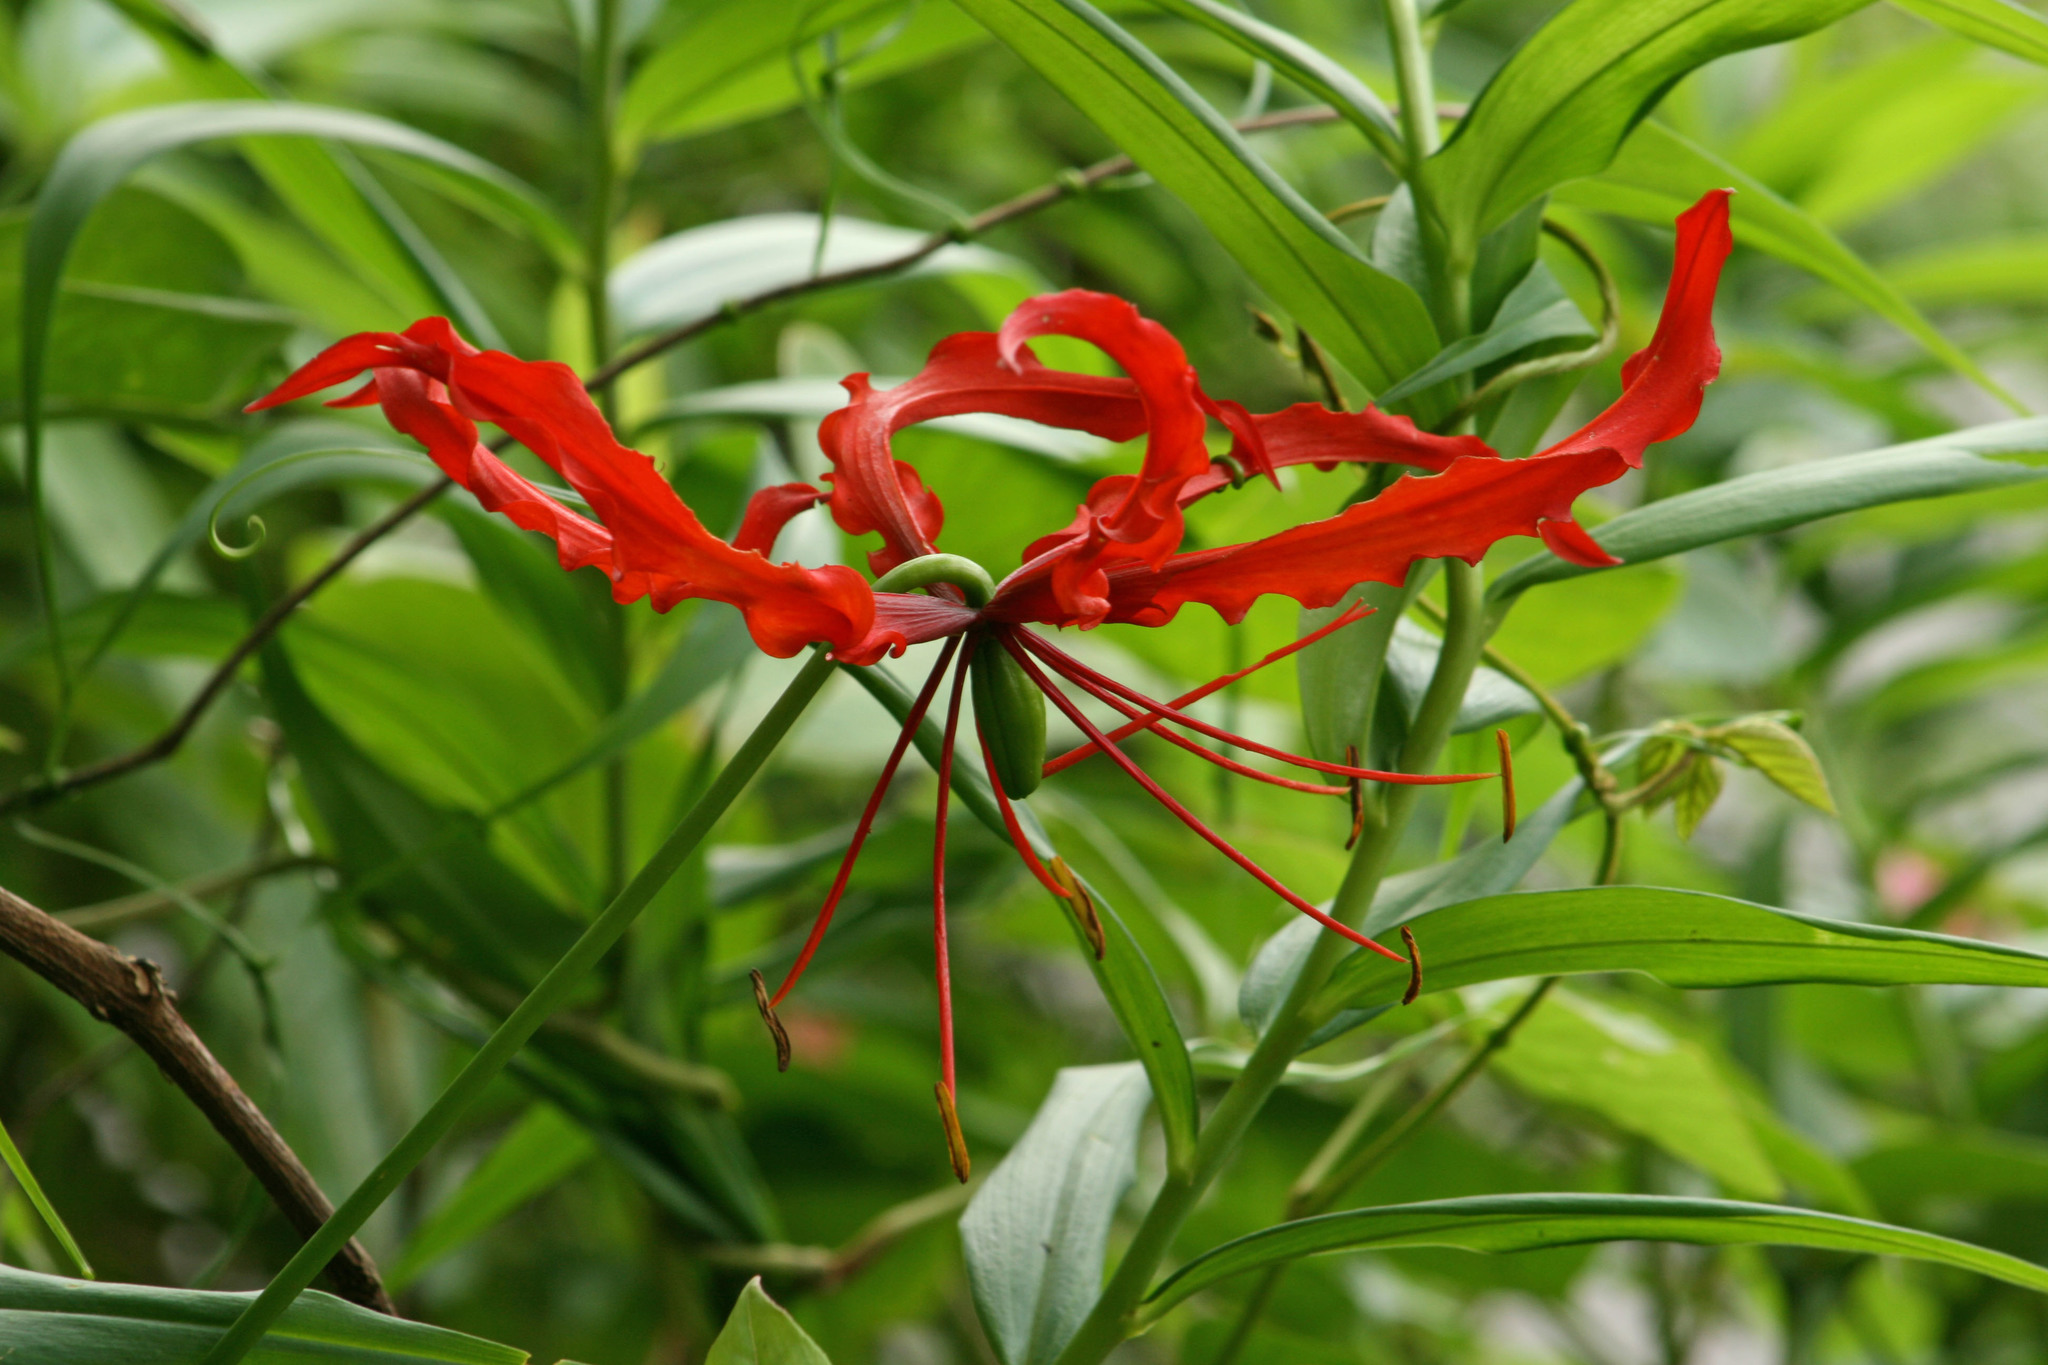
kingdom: Plantae
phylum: Tracheophyta
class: Liliopsida
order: Liliales
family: Colchicaceae
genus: Gloriosa
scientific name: Gloriosa superba
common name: Flame lily
